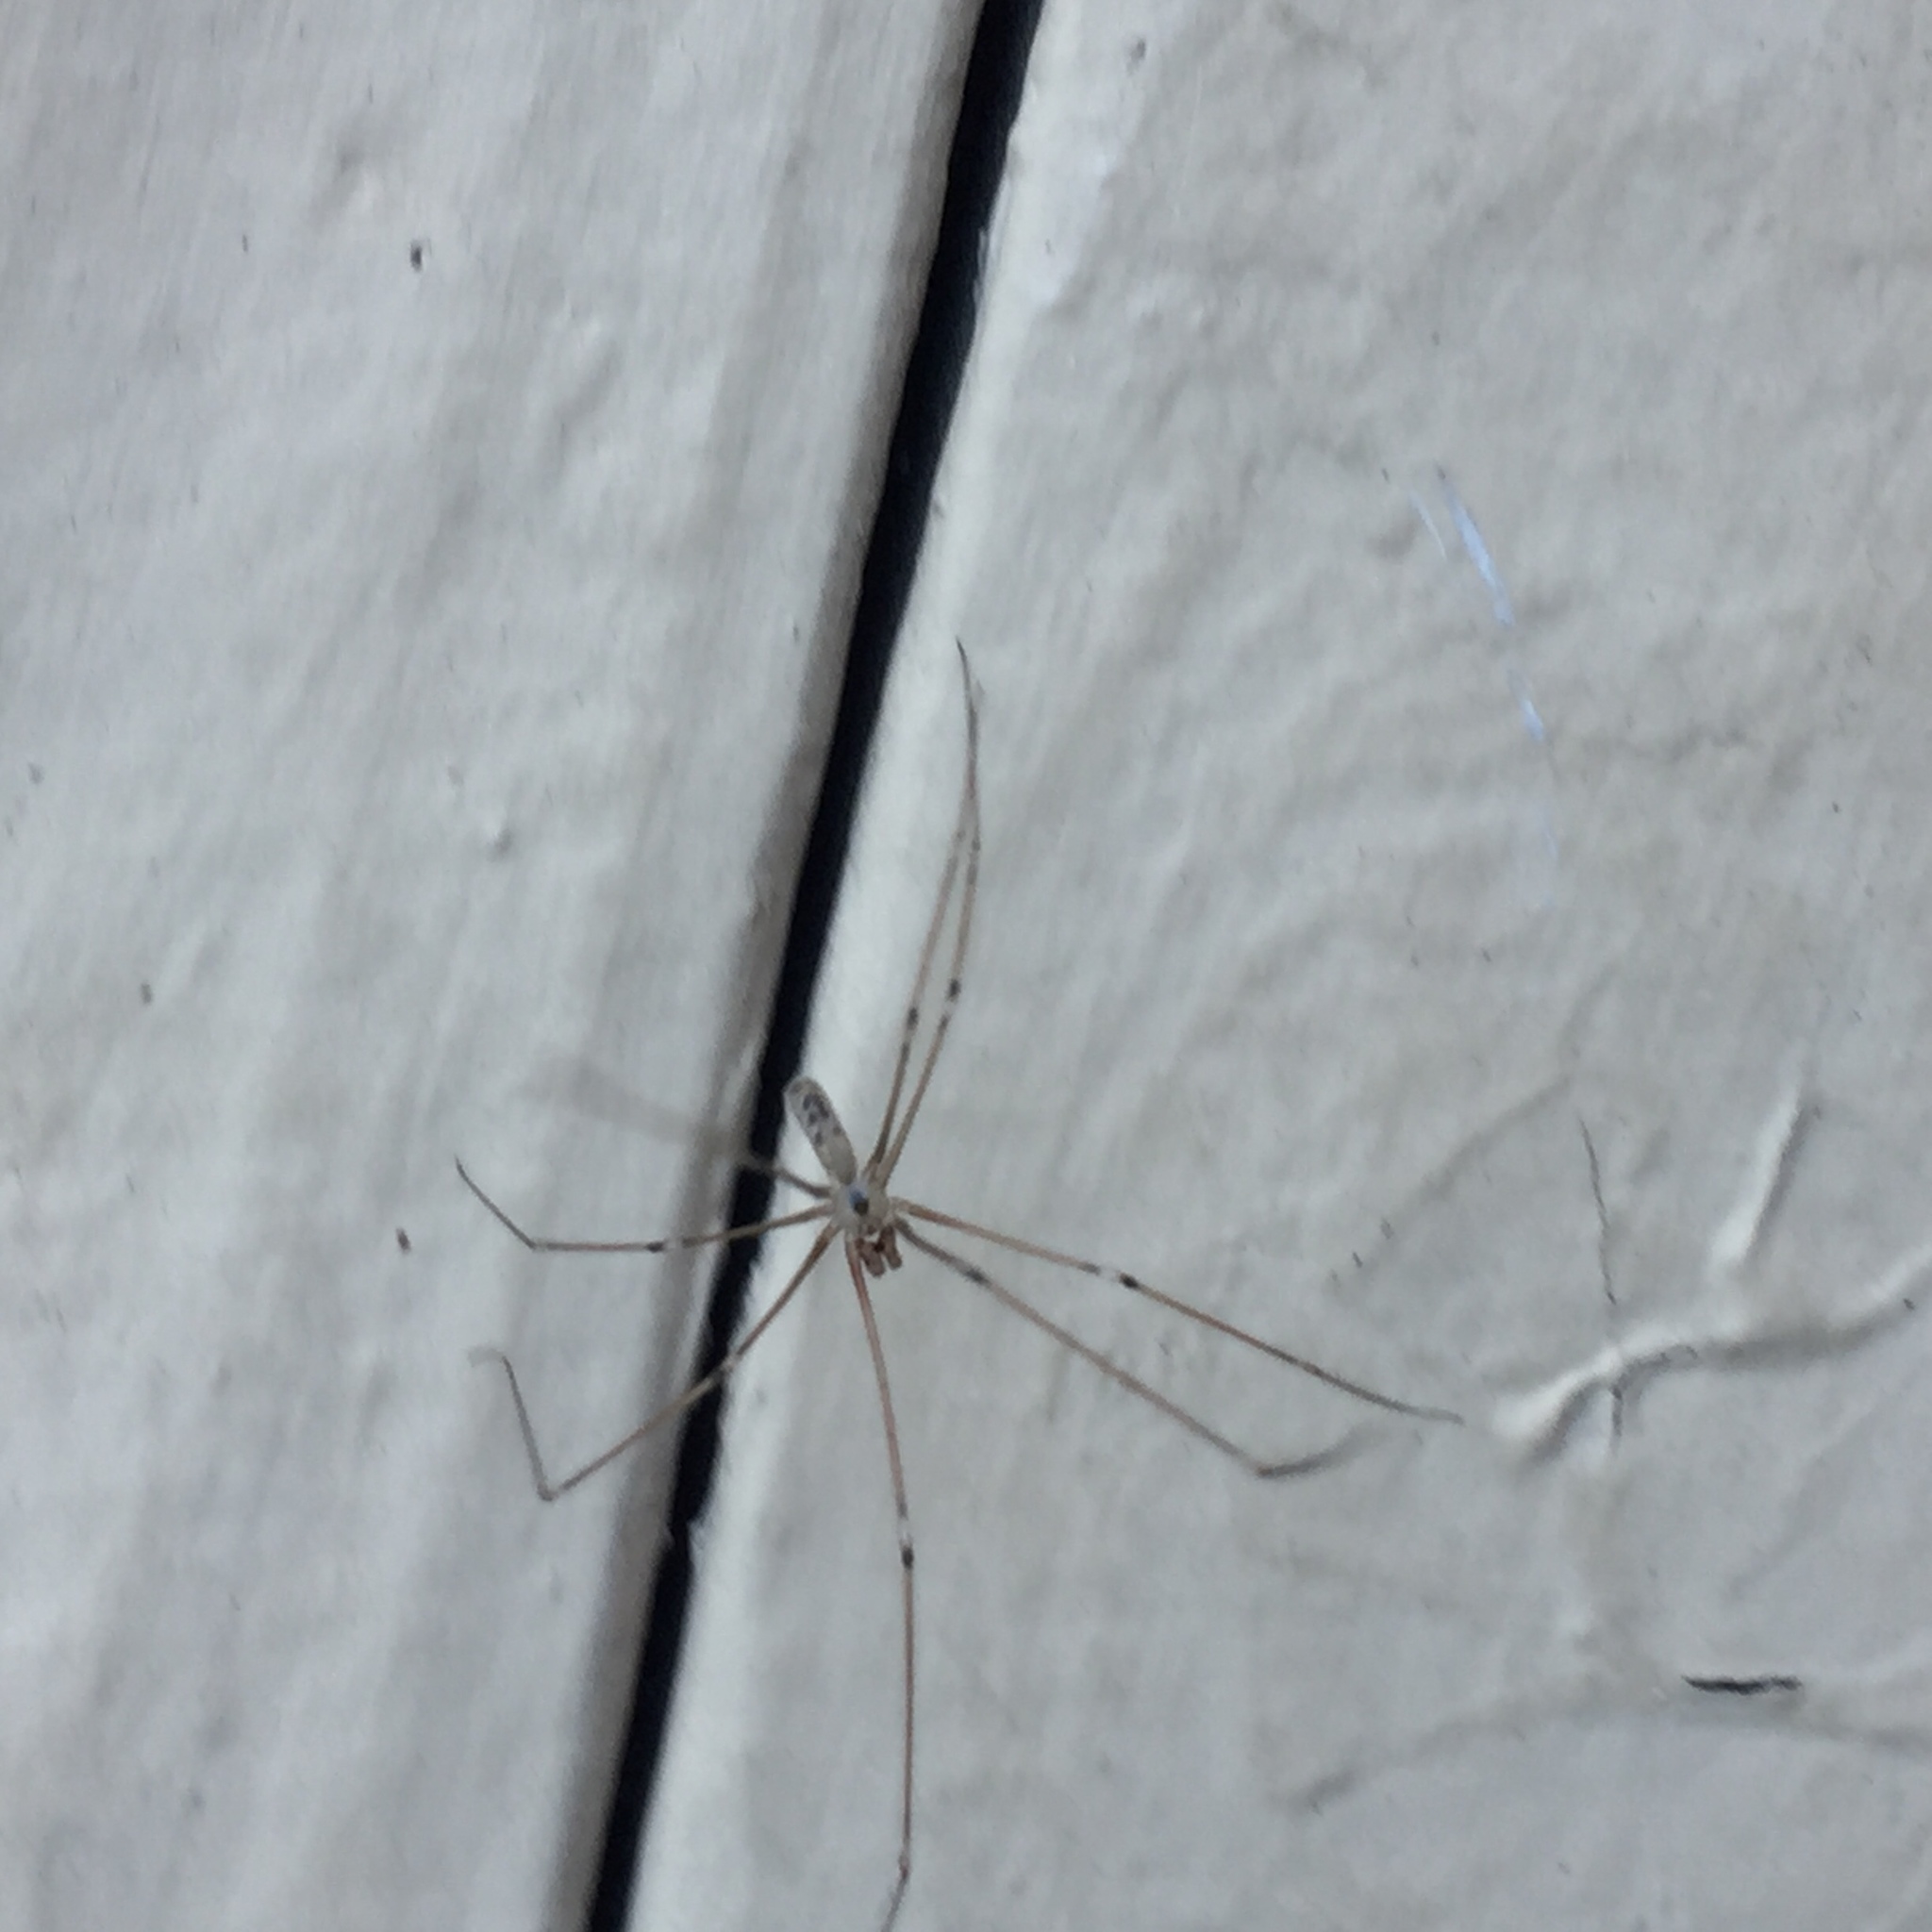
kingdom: Animalia
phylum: Arthropoda
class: Arachnida
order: Araneae
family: Pholcidae
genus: Pholcus
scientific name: Pholcus phalangioides
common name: Longbodied cellar spider
